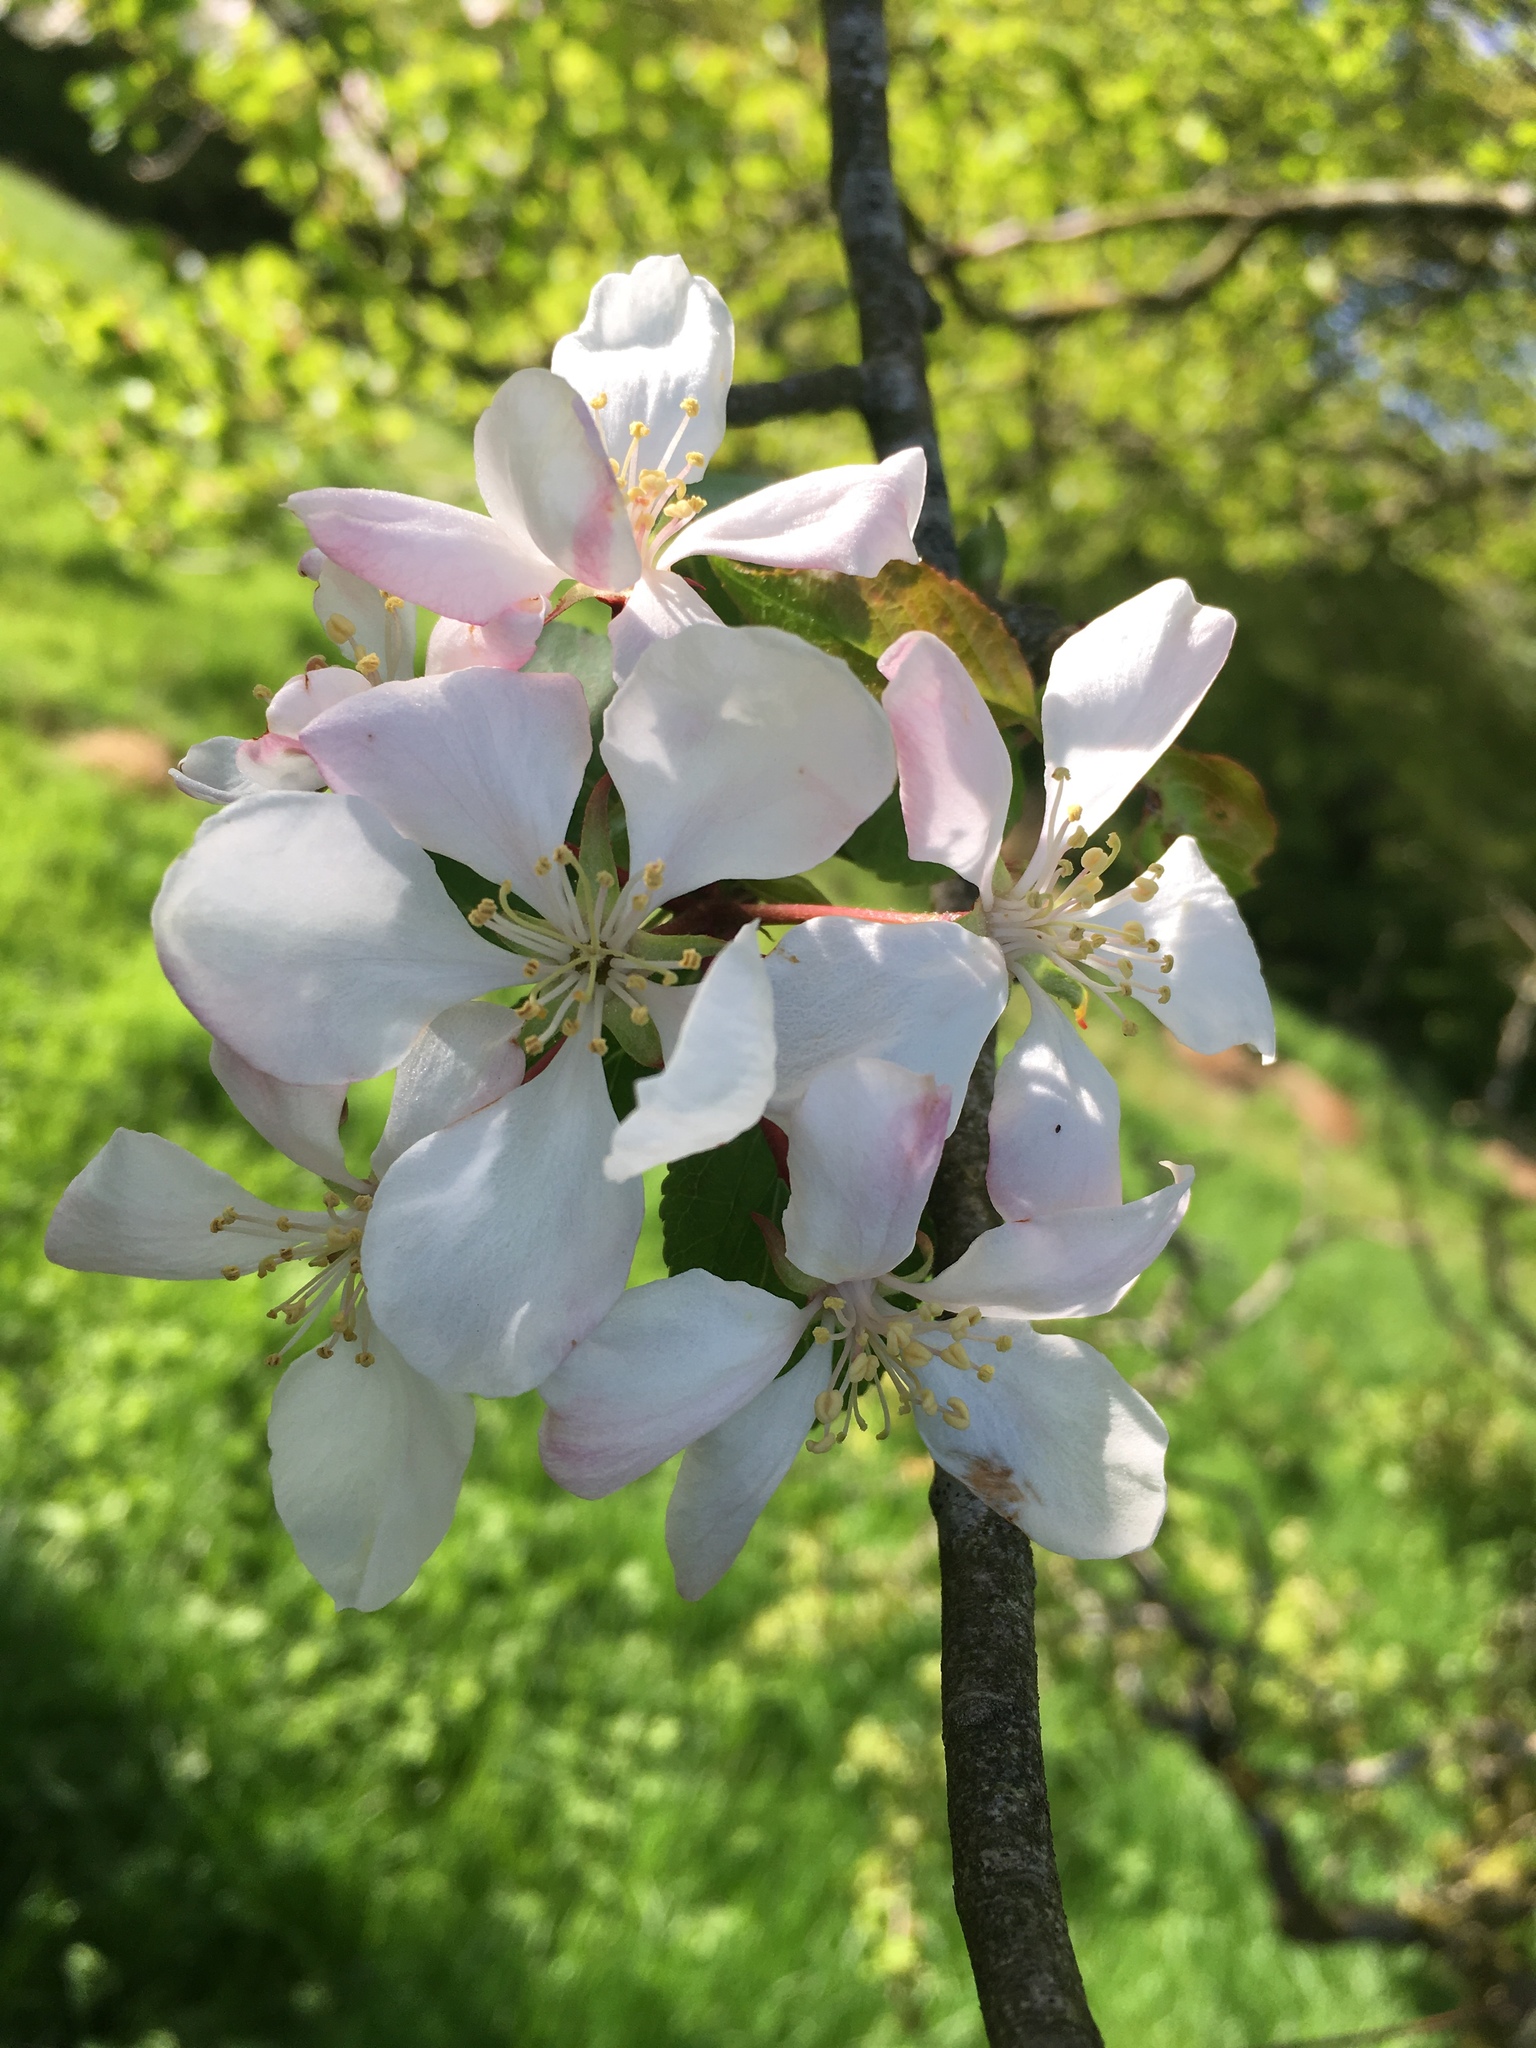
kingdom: Plantae
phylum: Tracheophyta
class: Magnoliopsida
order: Rosales
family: Rosaceae
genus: Malus
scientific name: Malus domestica
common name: Apple
